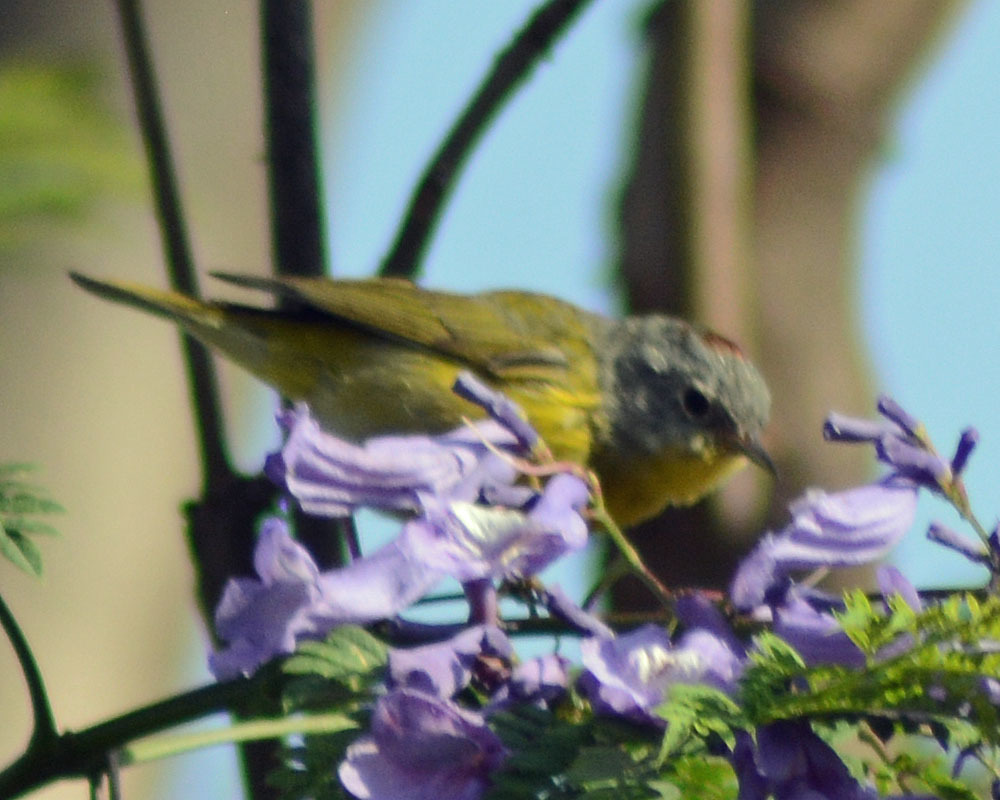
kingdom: Animalia
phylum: Chordata
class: Aves
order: Passeriformes
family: Parulidae
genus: Leiothlypis
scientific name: Leiothlypis ruficapilla
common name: Nashville warbler
